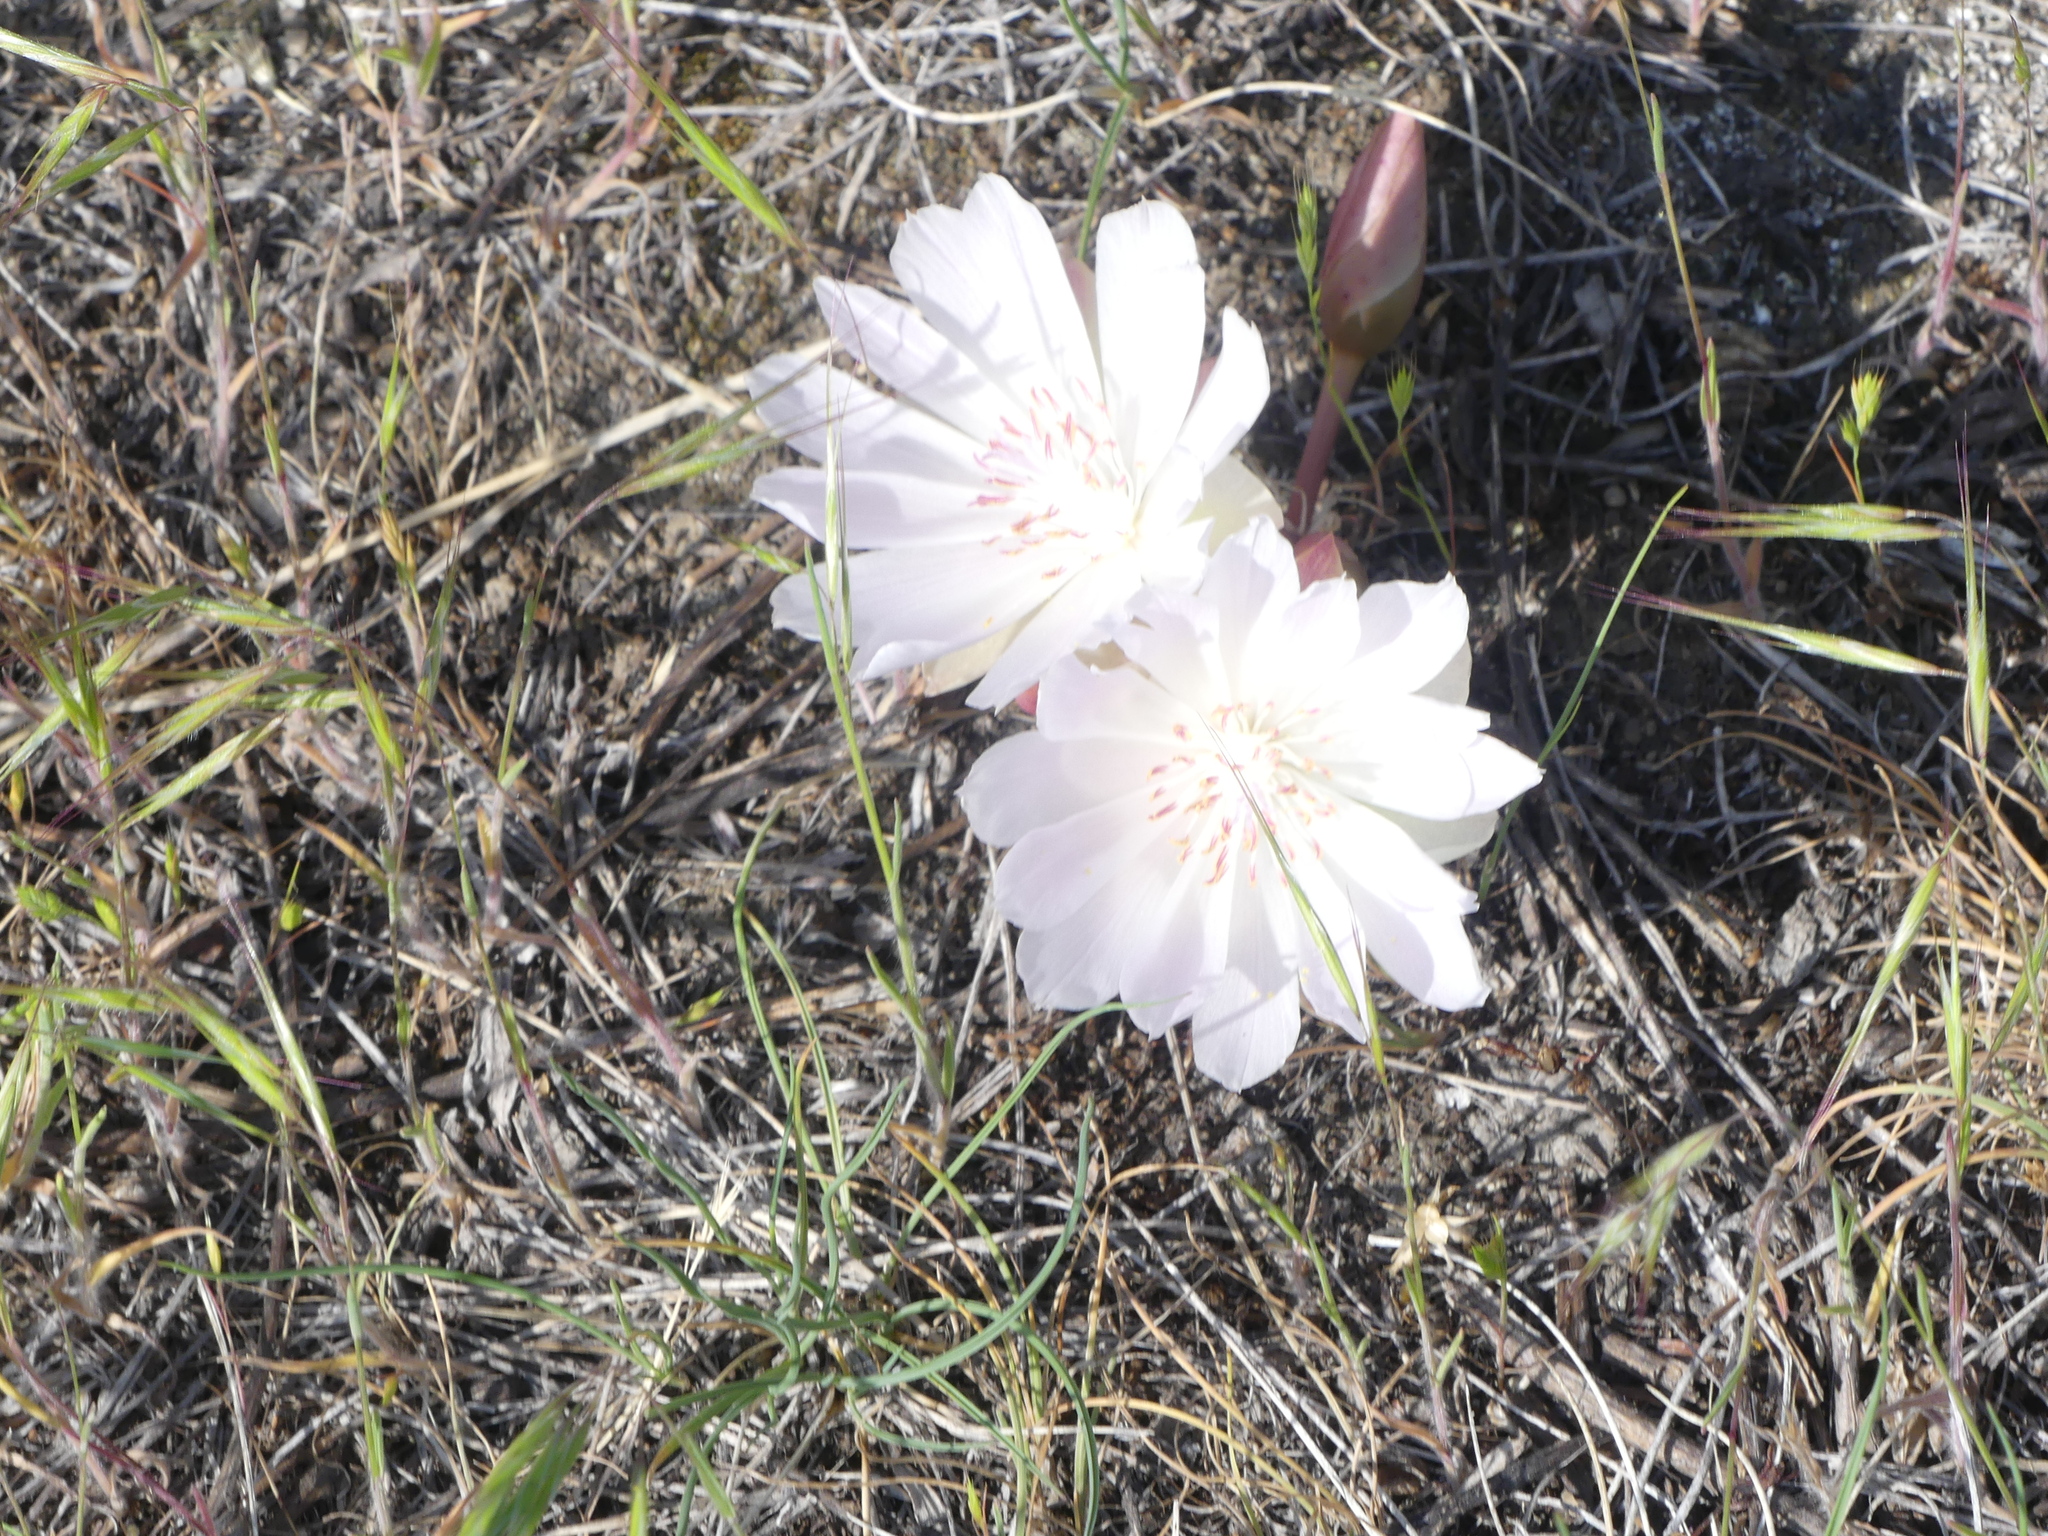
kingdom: Plantae
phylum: Tracheophyta
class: Magnoliopsida
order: Caryophyllales
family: Montiaceae
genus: Lewisia
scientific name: Lewisia rediviva
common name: Bitter-root
